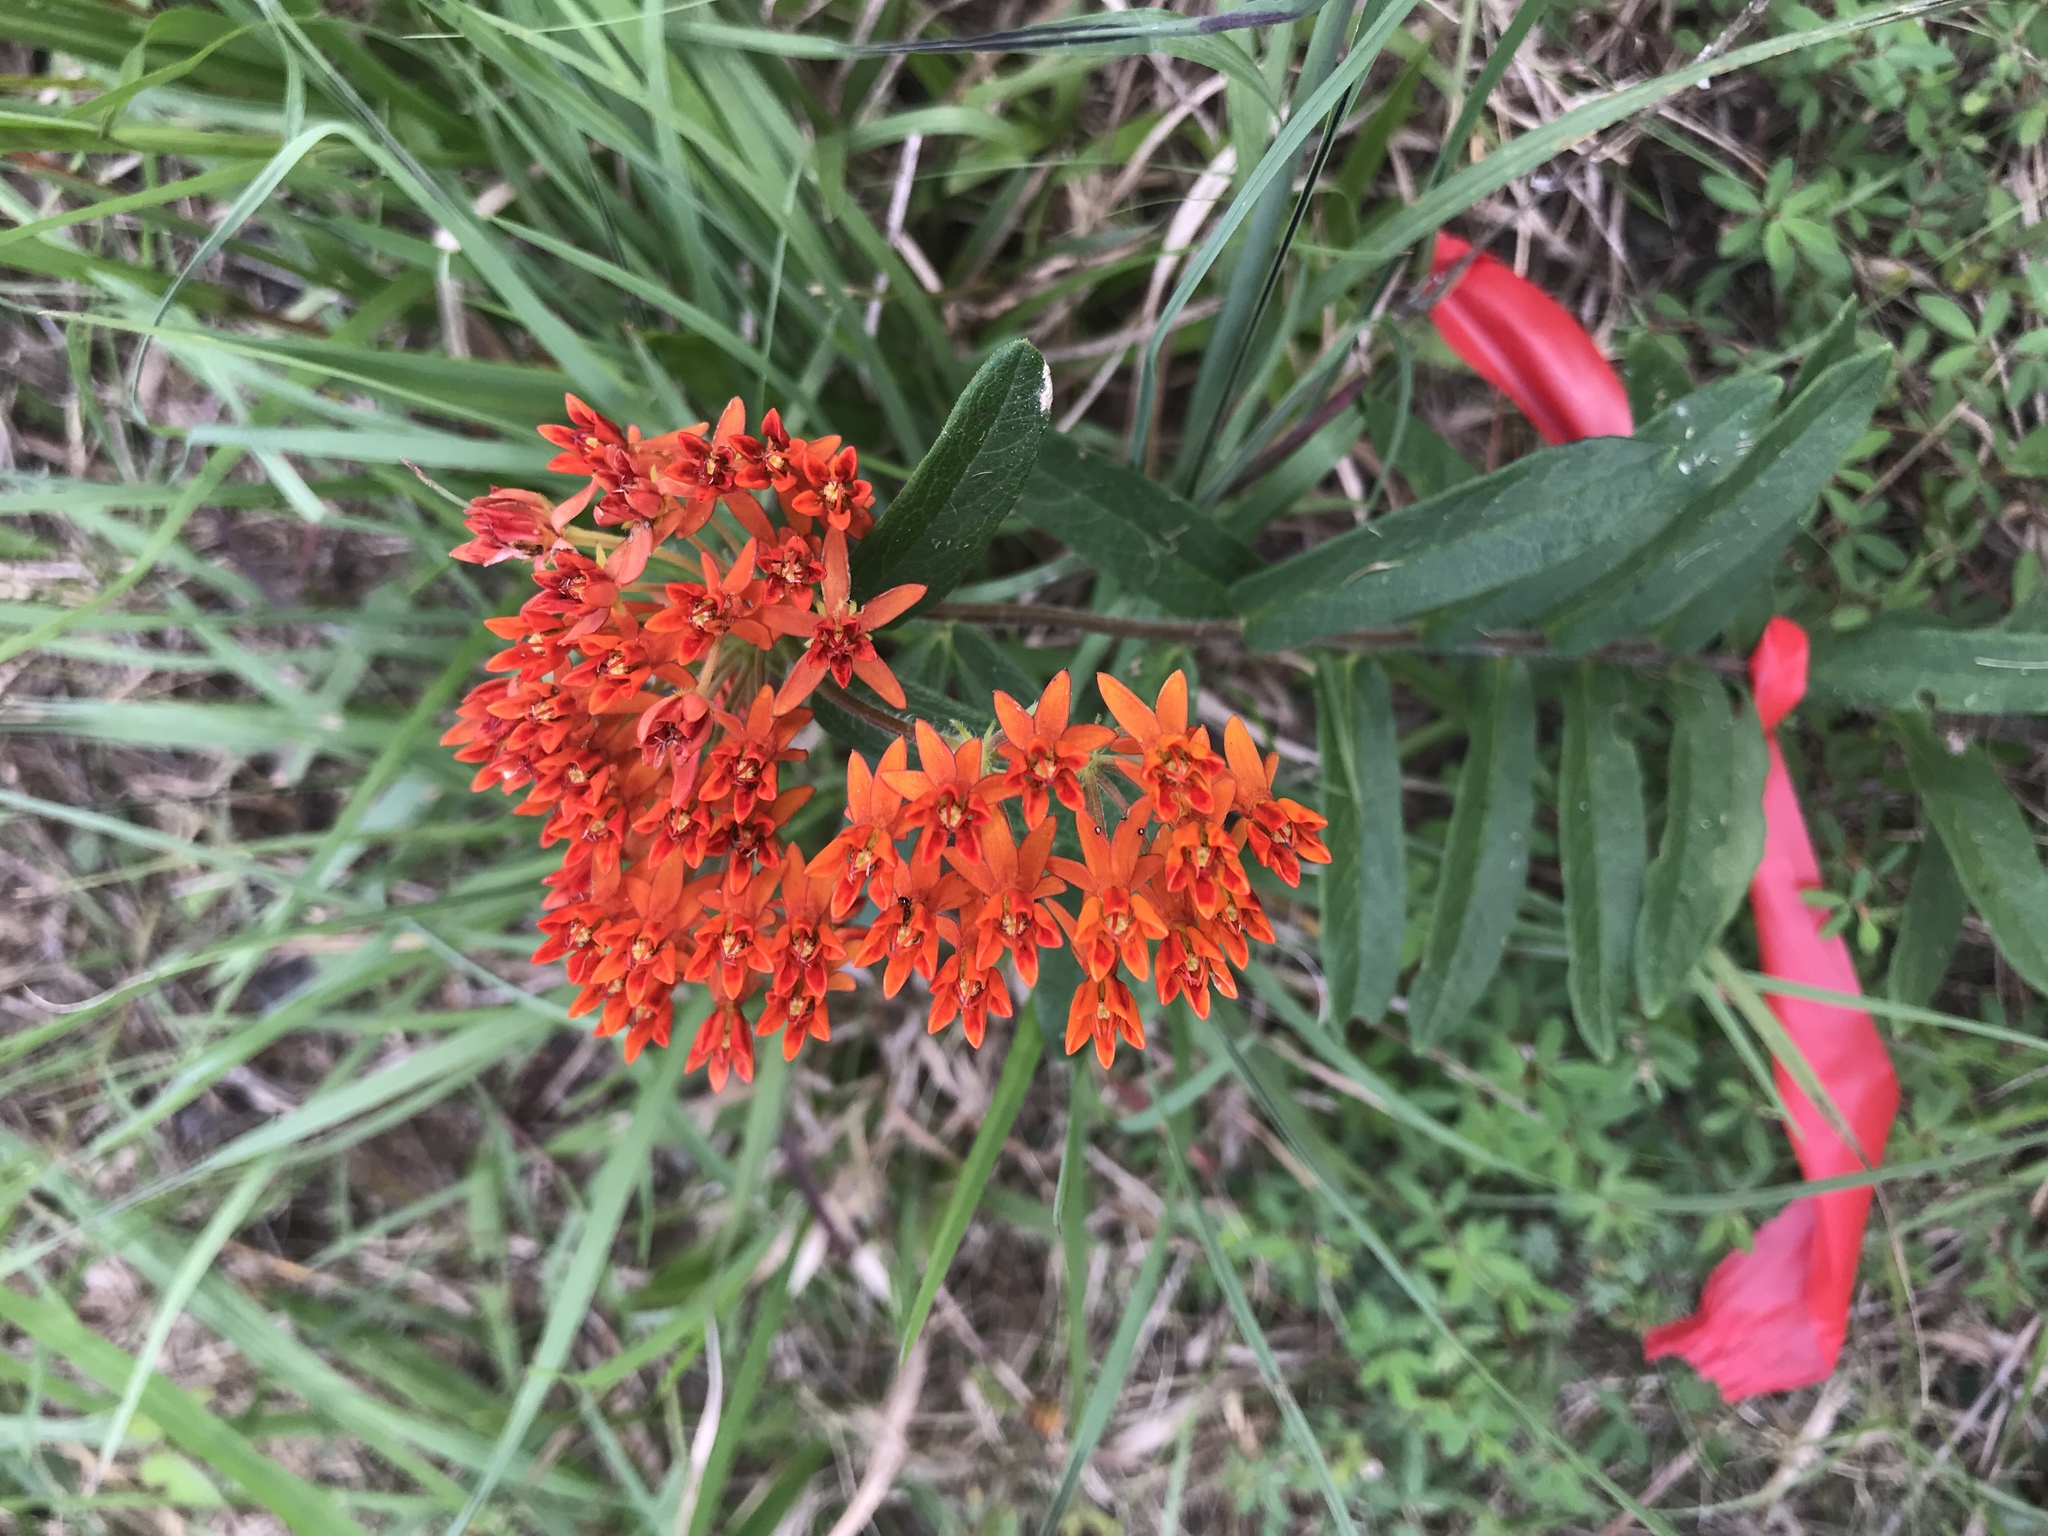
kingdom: Plantae
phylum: Tracheophyta
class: Magnoliopsida
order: Gentianales
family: Apocynaceae
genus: Asclepias
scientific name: Asclepias tuberosa
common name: Butterfly milkweed
